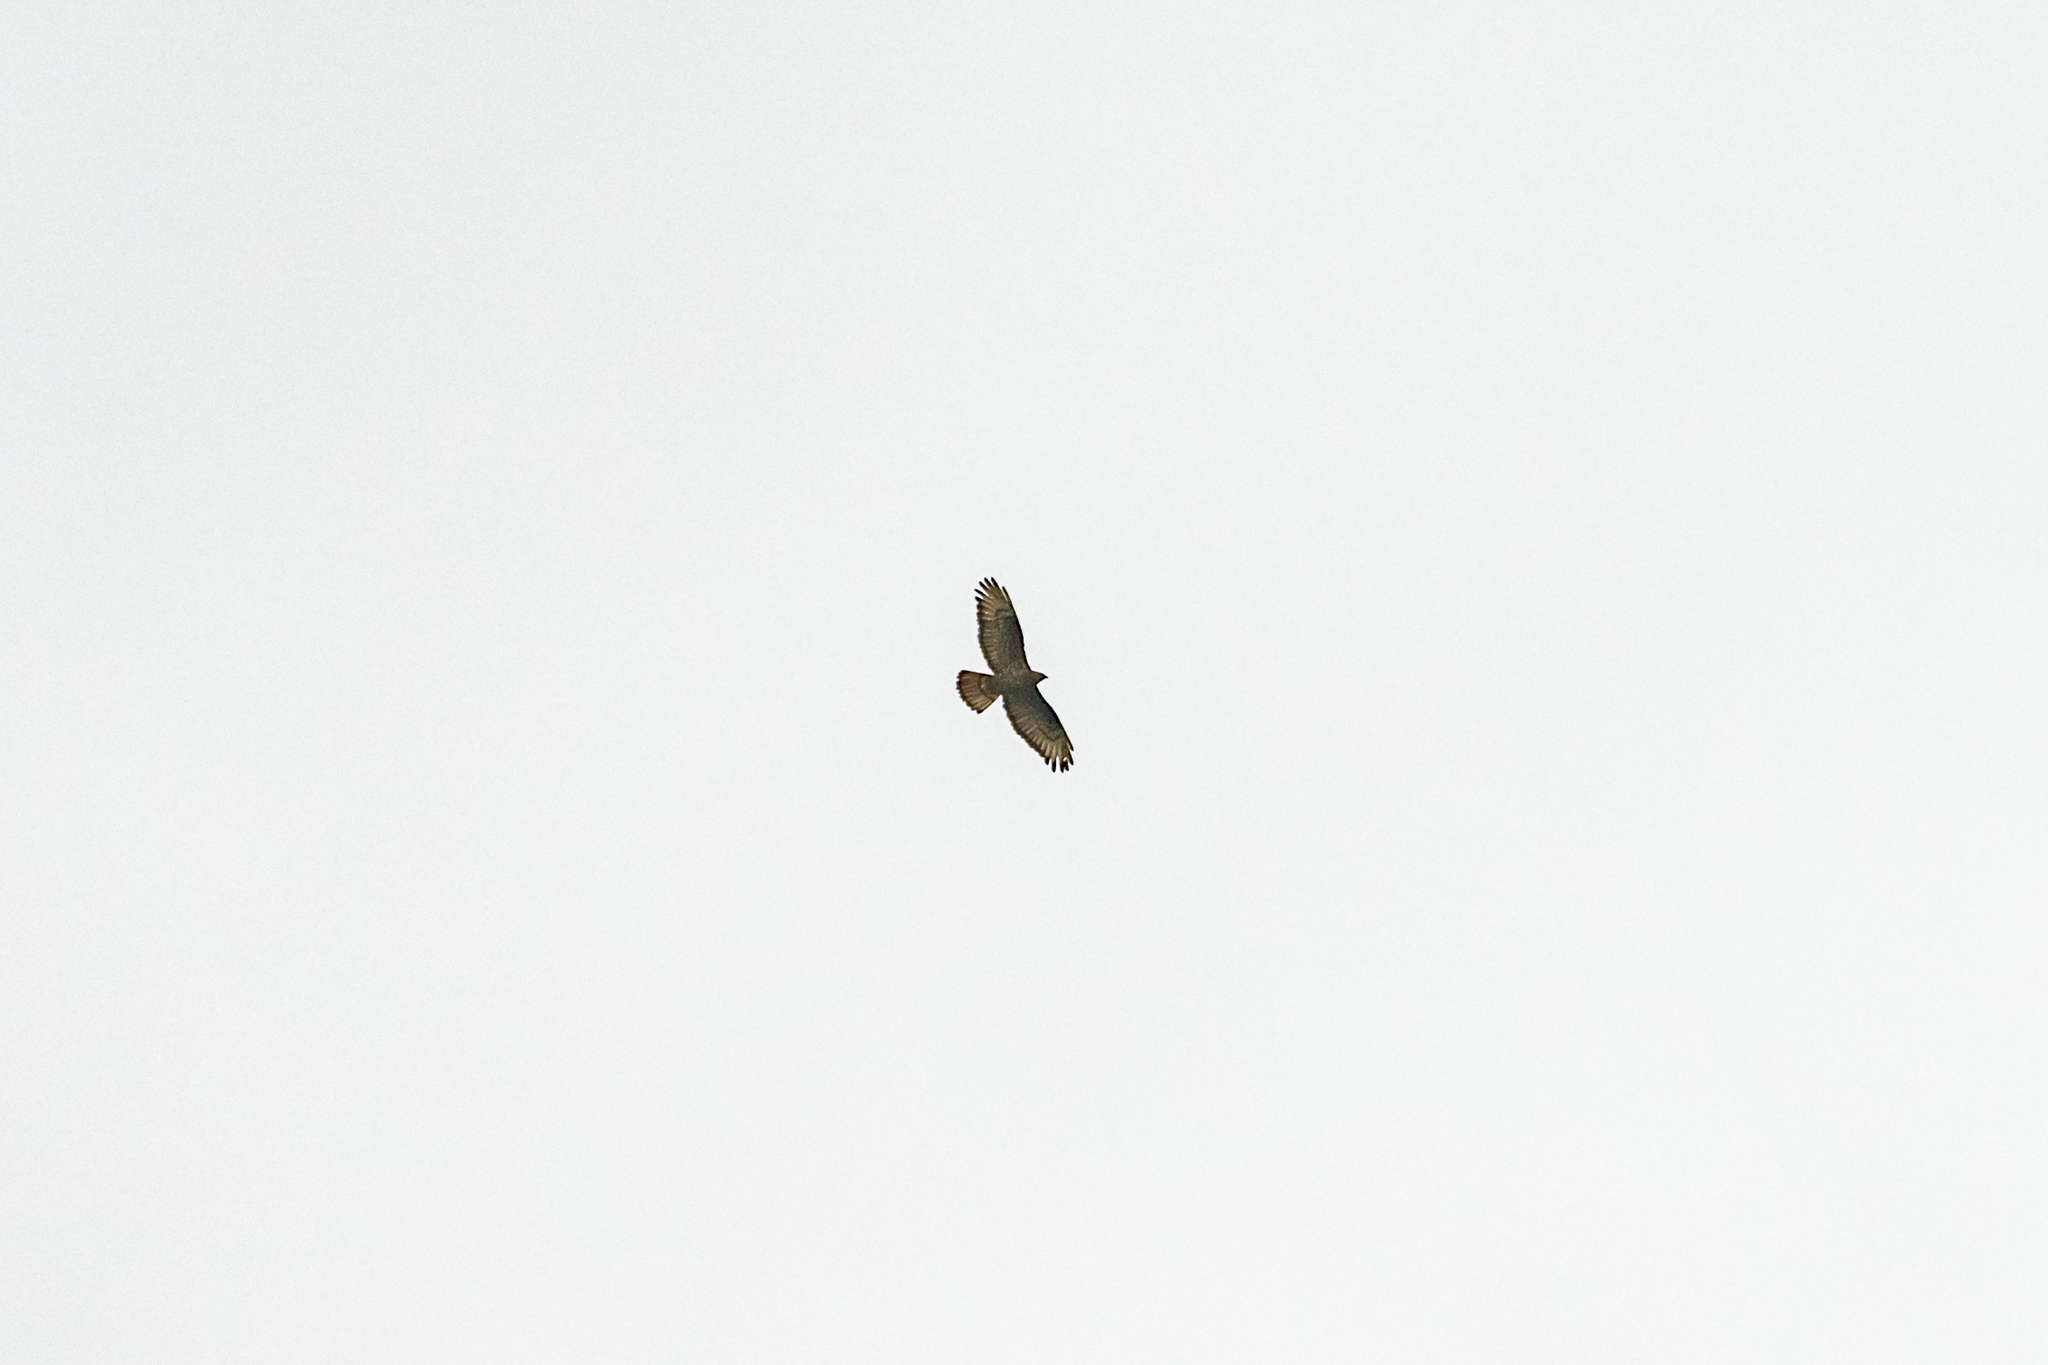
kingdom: Animalia
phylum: Chordata
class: Aves
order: Accipitriformes
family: Accipitridae
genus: Pernis
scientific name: Pernis apivorus
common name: European honey buzzard
